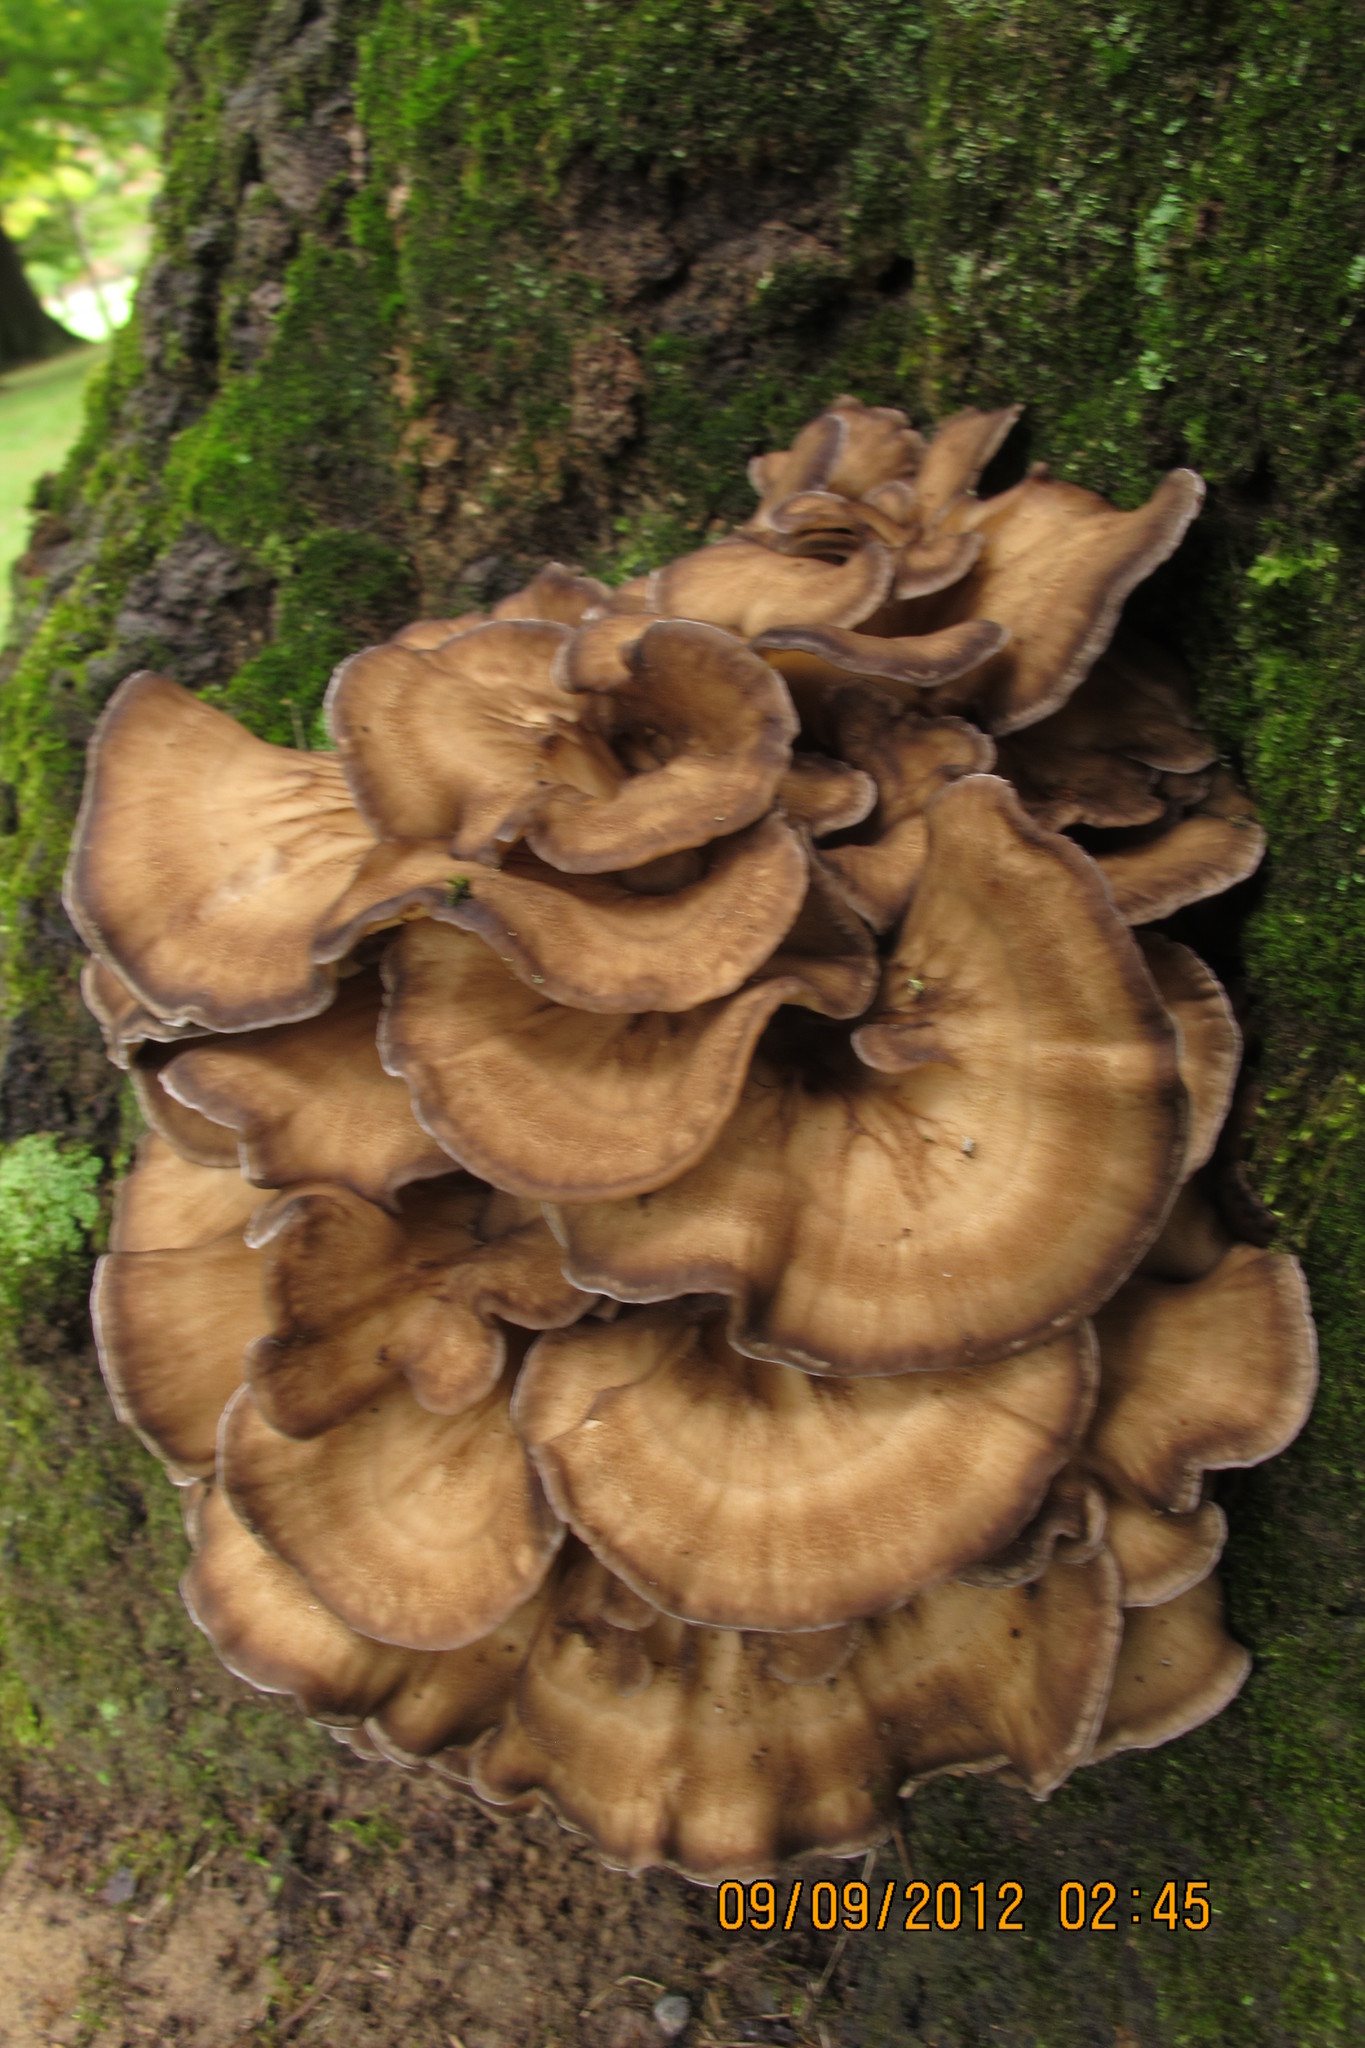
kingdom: Fungi
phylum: Basidiomycota
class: Agaricomycetes
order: Polyporales
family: Grifolaceae
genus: Grifola
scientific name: Grifola frondosa
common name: Hen of the woods
